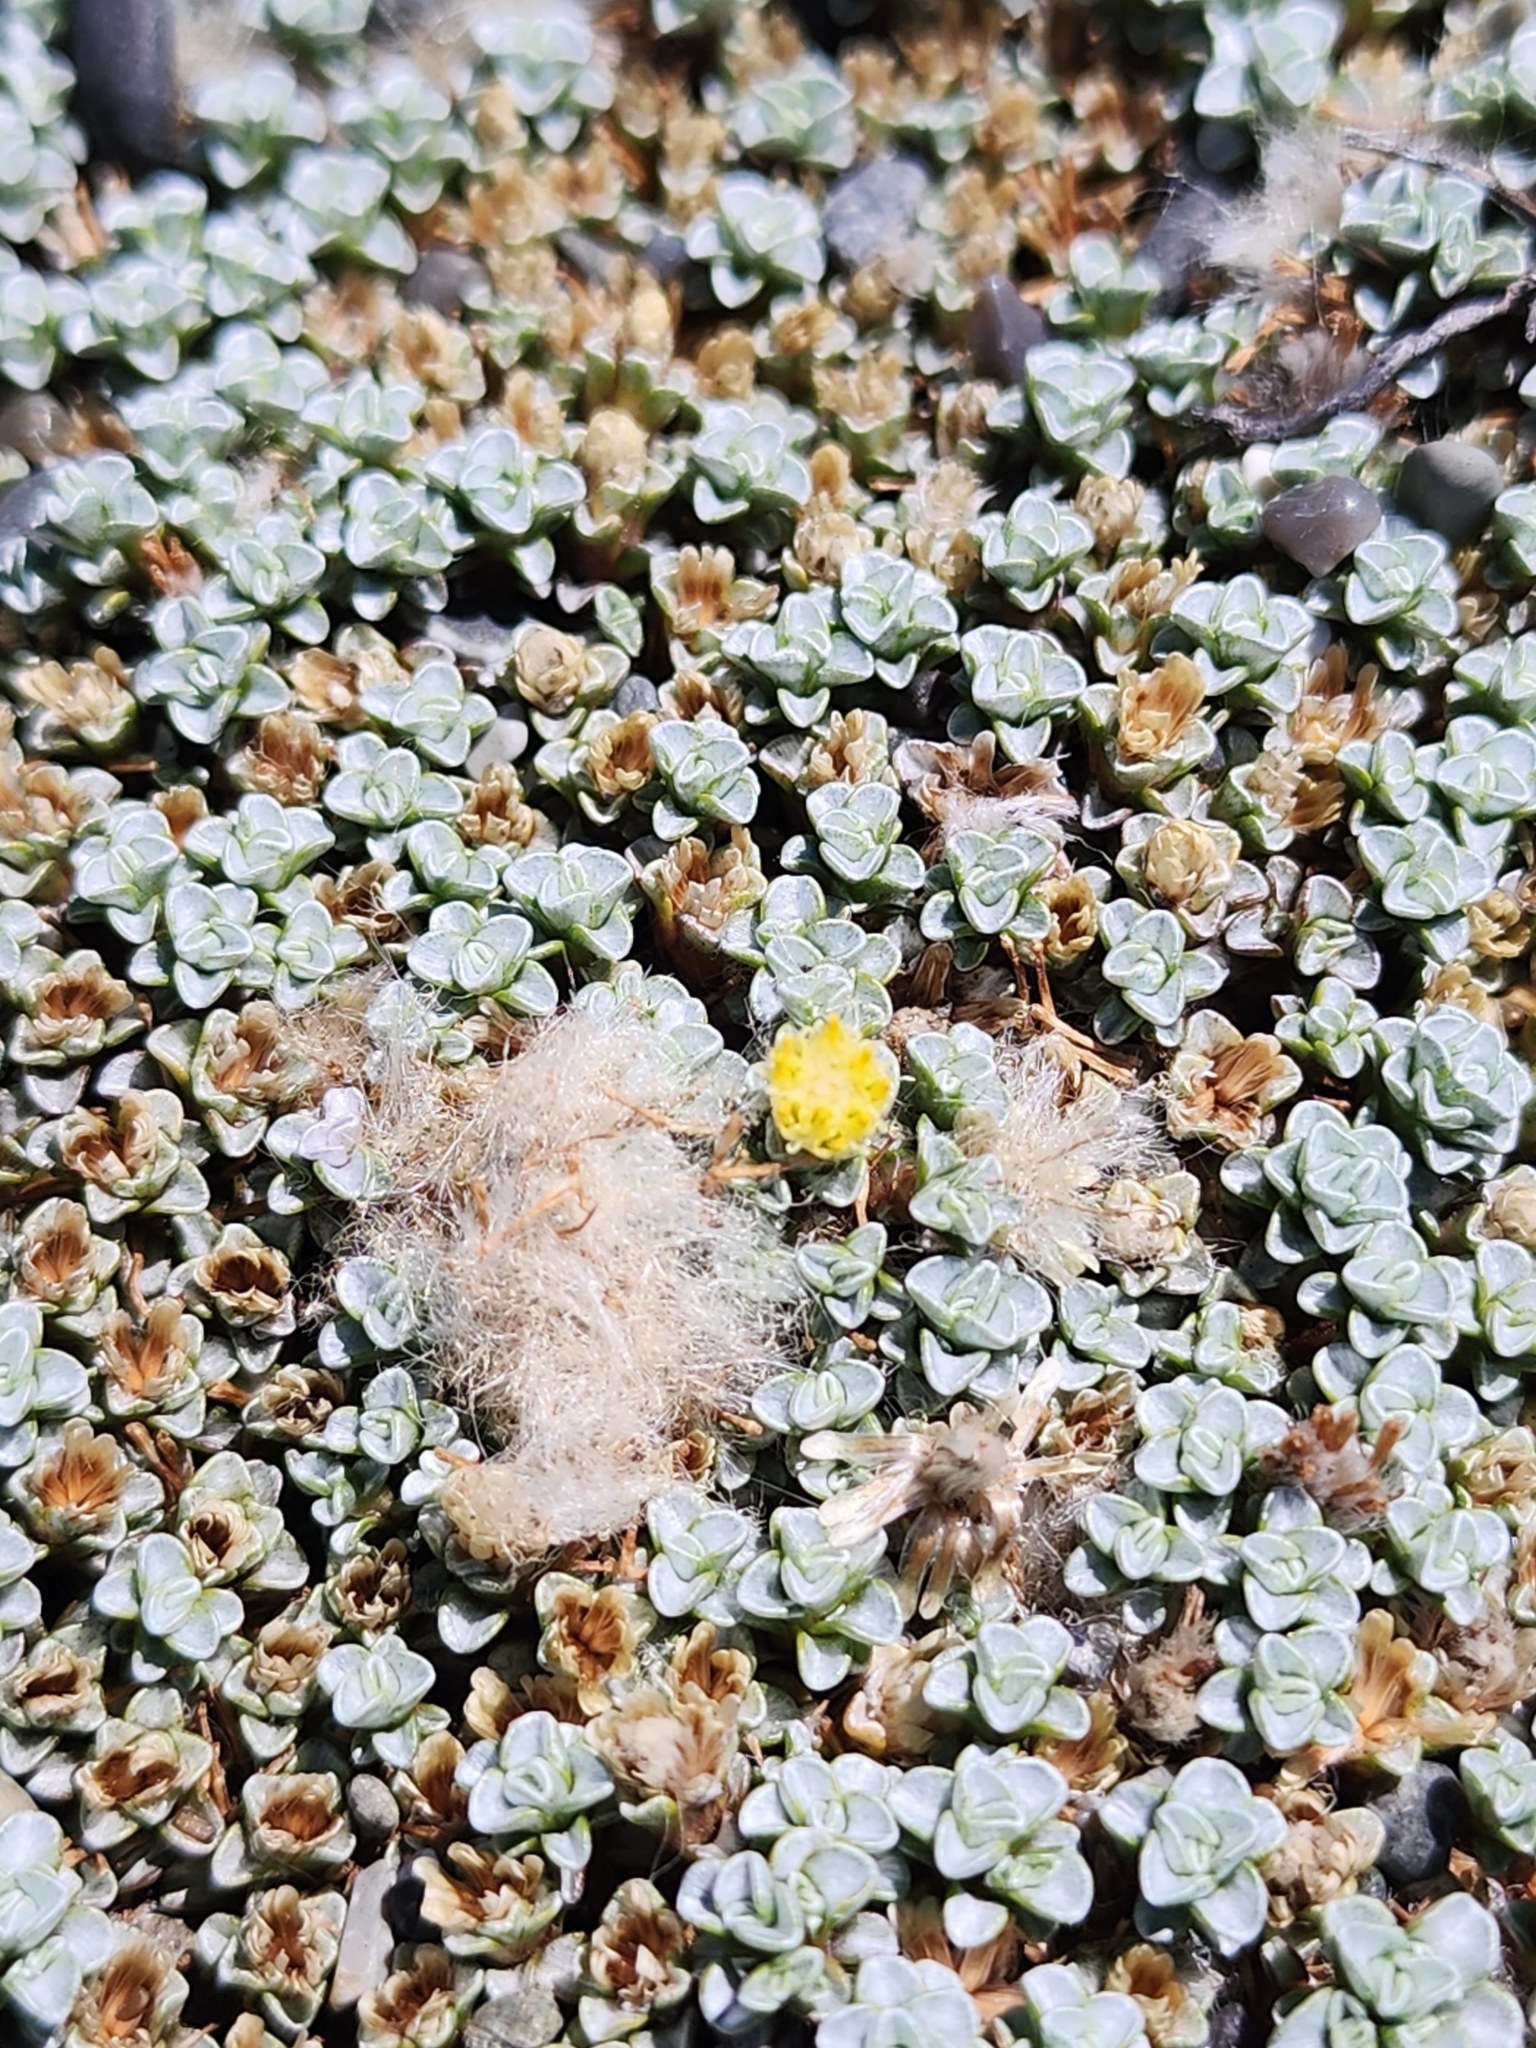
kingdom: Plantae
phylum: Tracheophyta
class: Magnoliopsida
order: Asterales
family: Asteraceae
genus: Raoulia
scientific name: Raoulia hookeri
